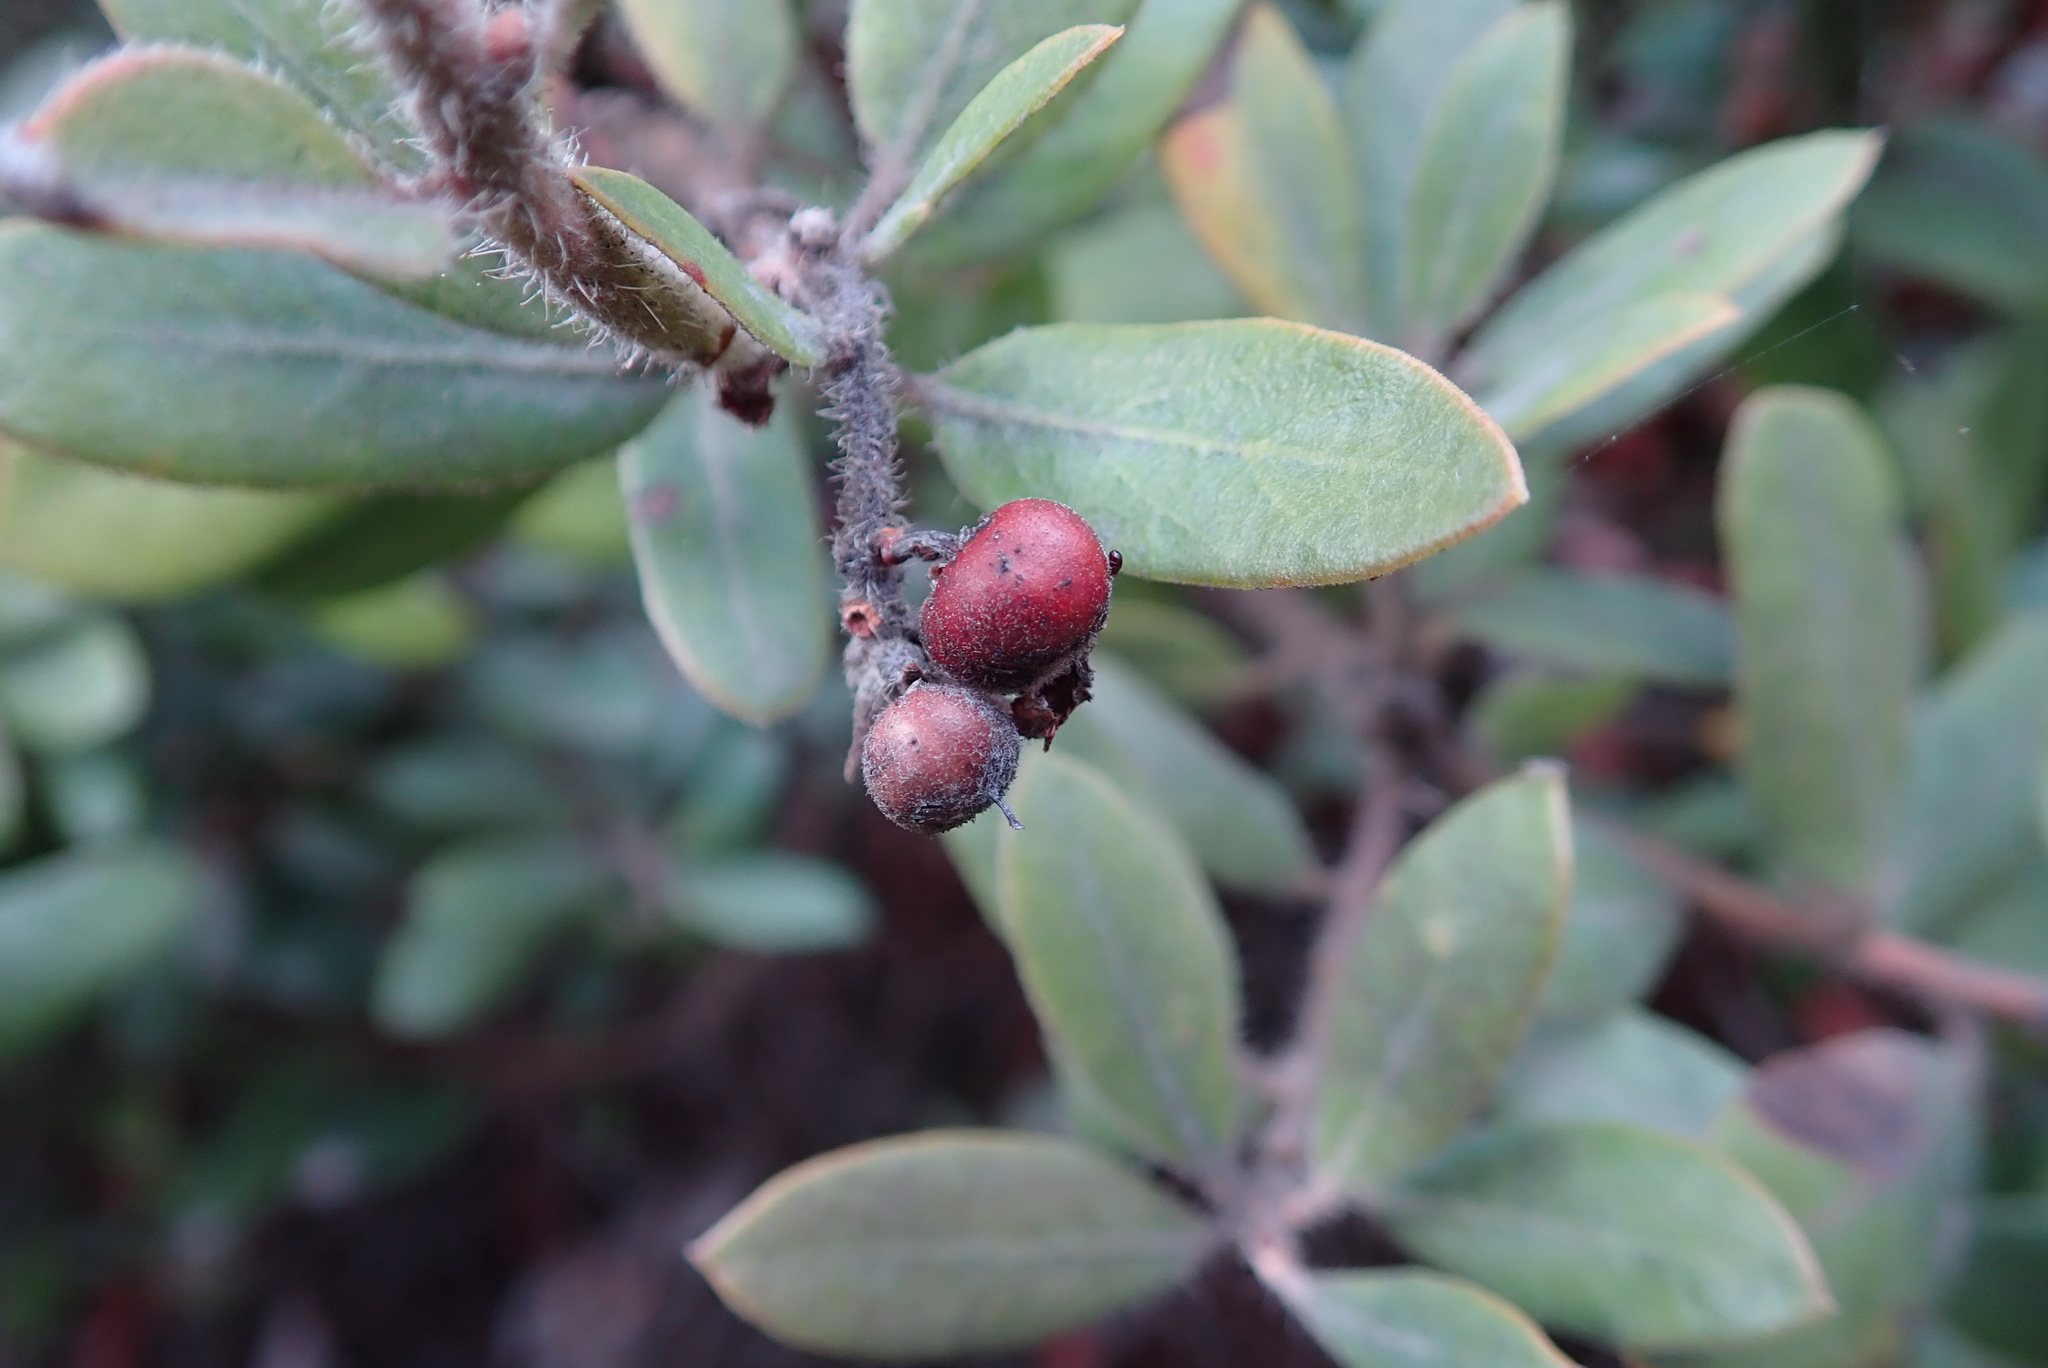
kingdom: Plantae
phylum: Tracheophyta
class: Magnoliopsida
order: Ericales
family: Ericaceae
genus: Arctostaphylos
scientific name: Arctostaphylos tomentosa
